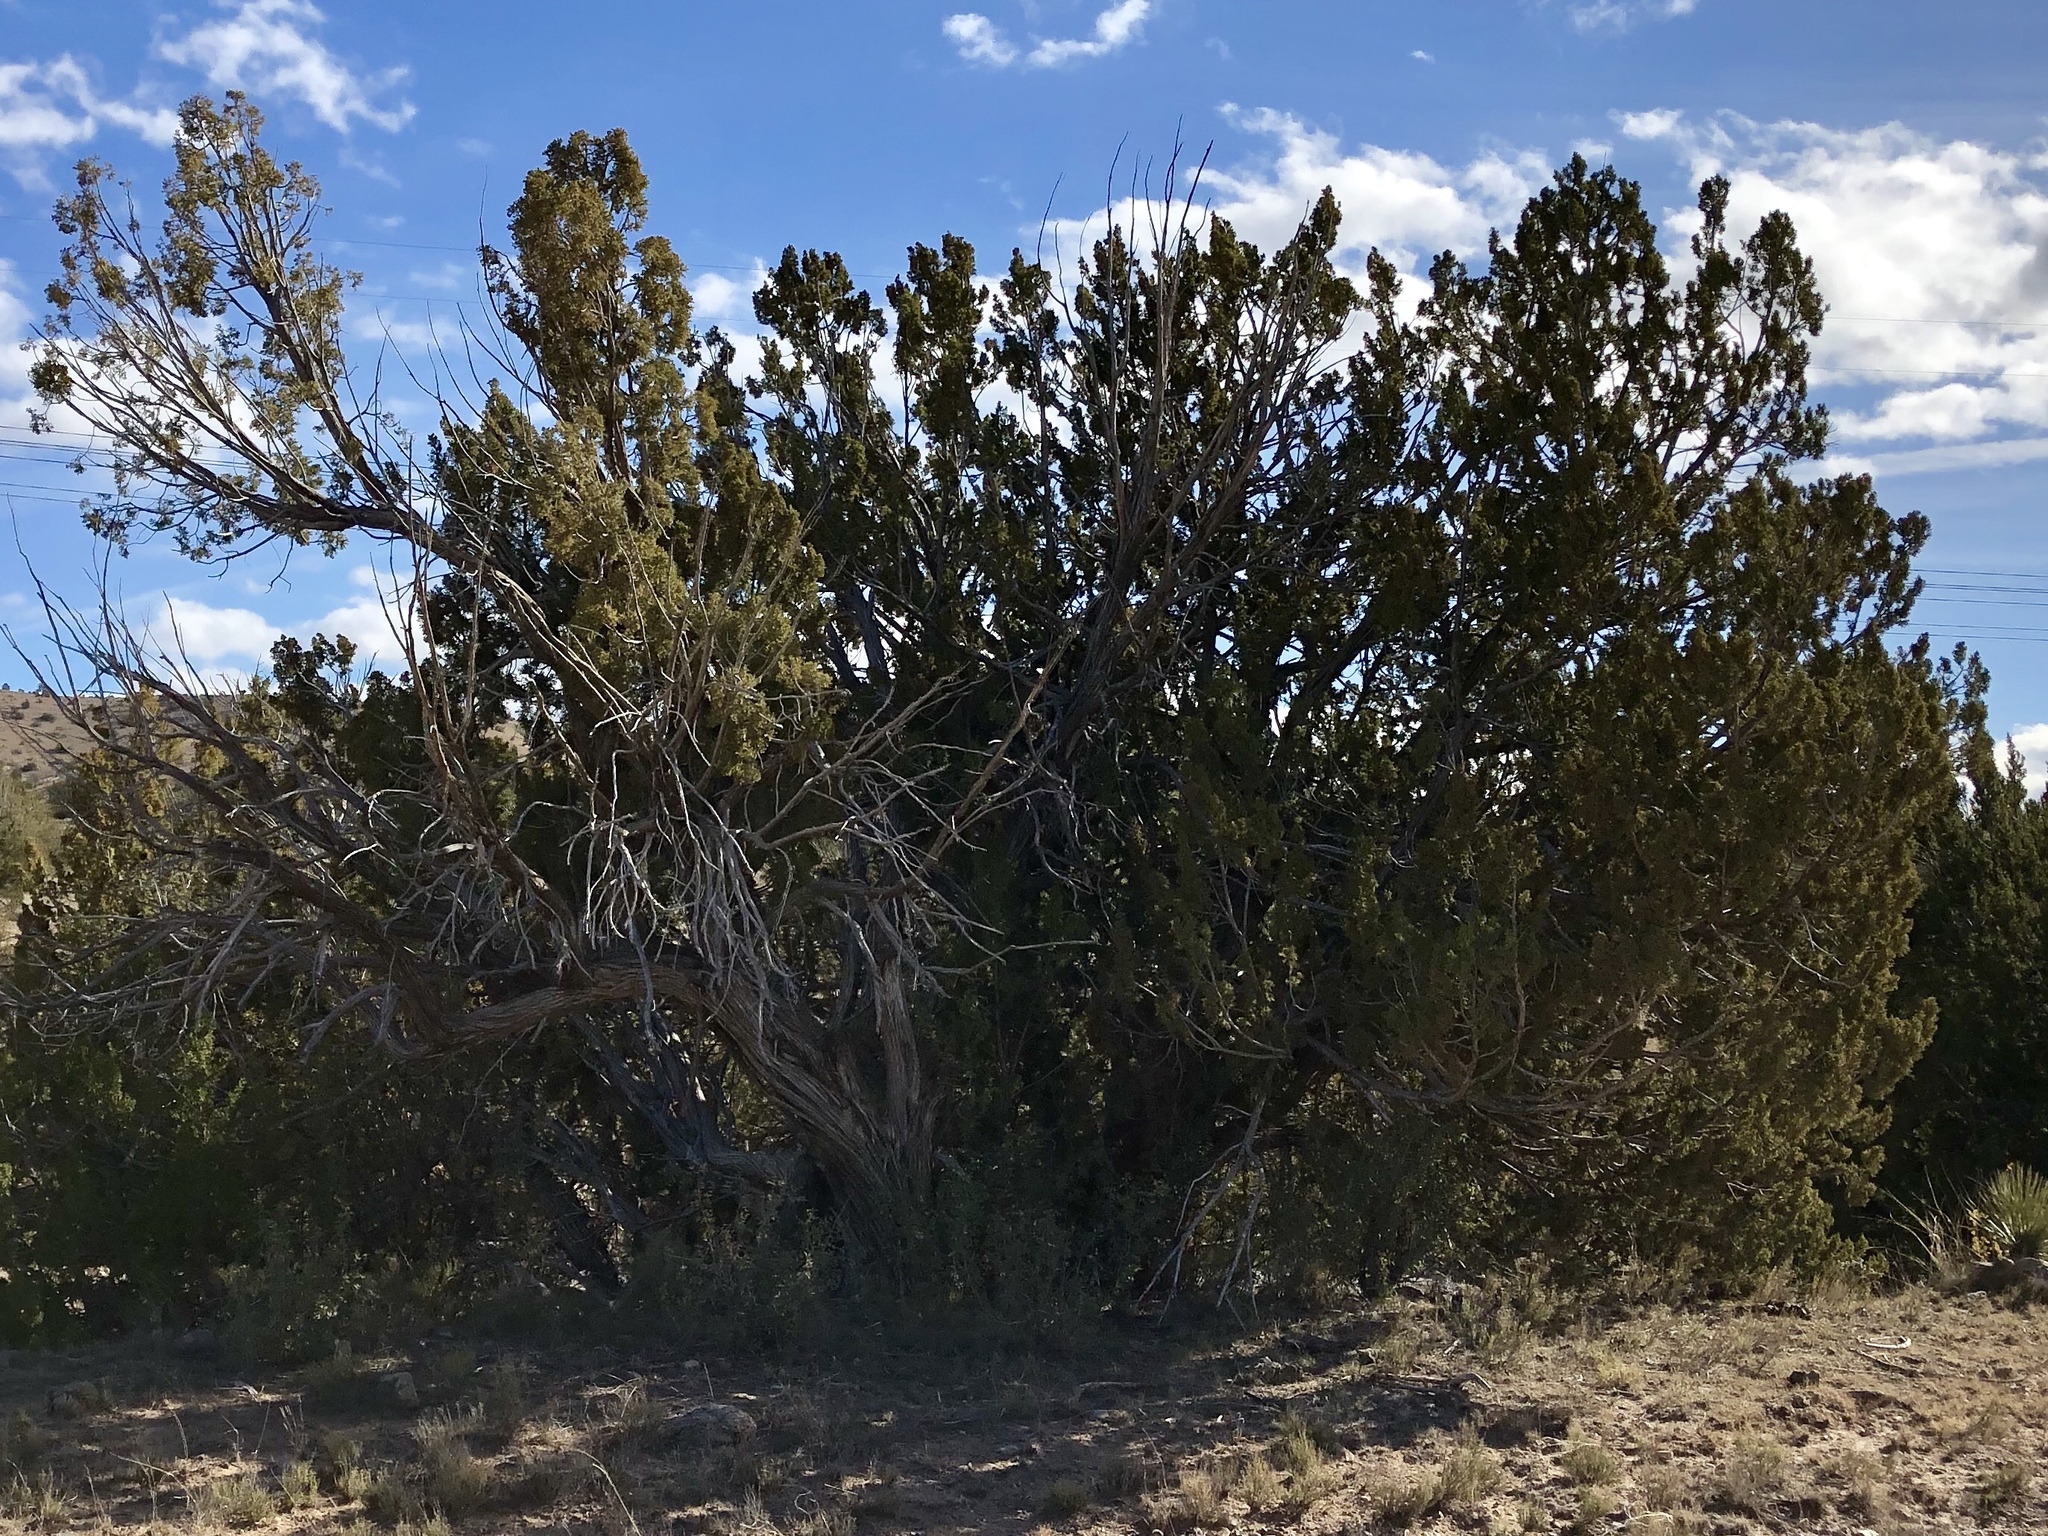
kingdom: Plantae
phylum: Tracheophyta
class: Pinopsida
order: Pinales
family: Cupressaceae
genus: Juniperus
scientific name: Juniperus monosperma
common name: One-seed juniper
